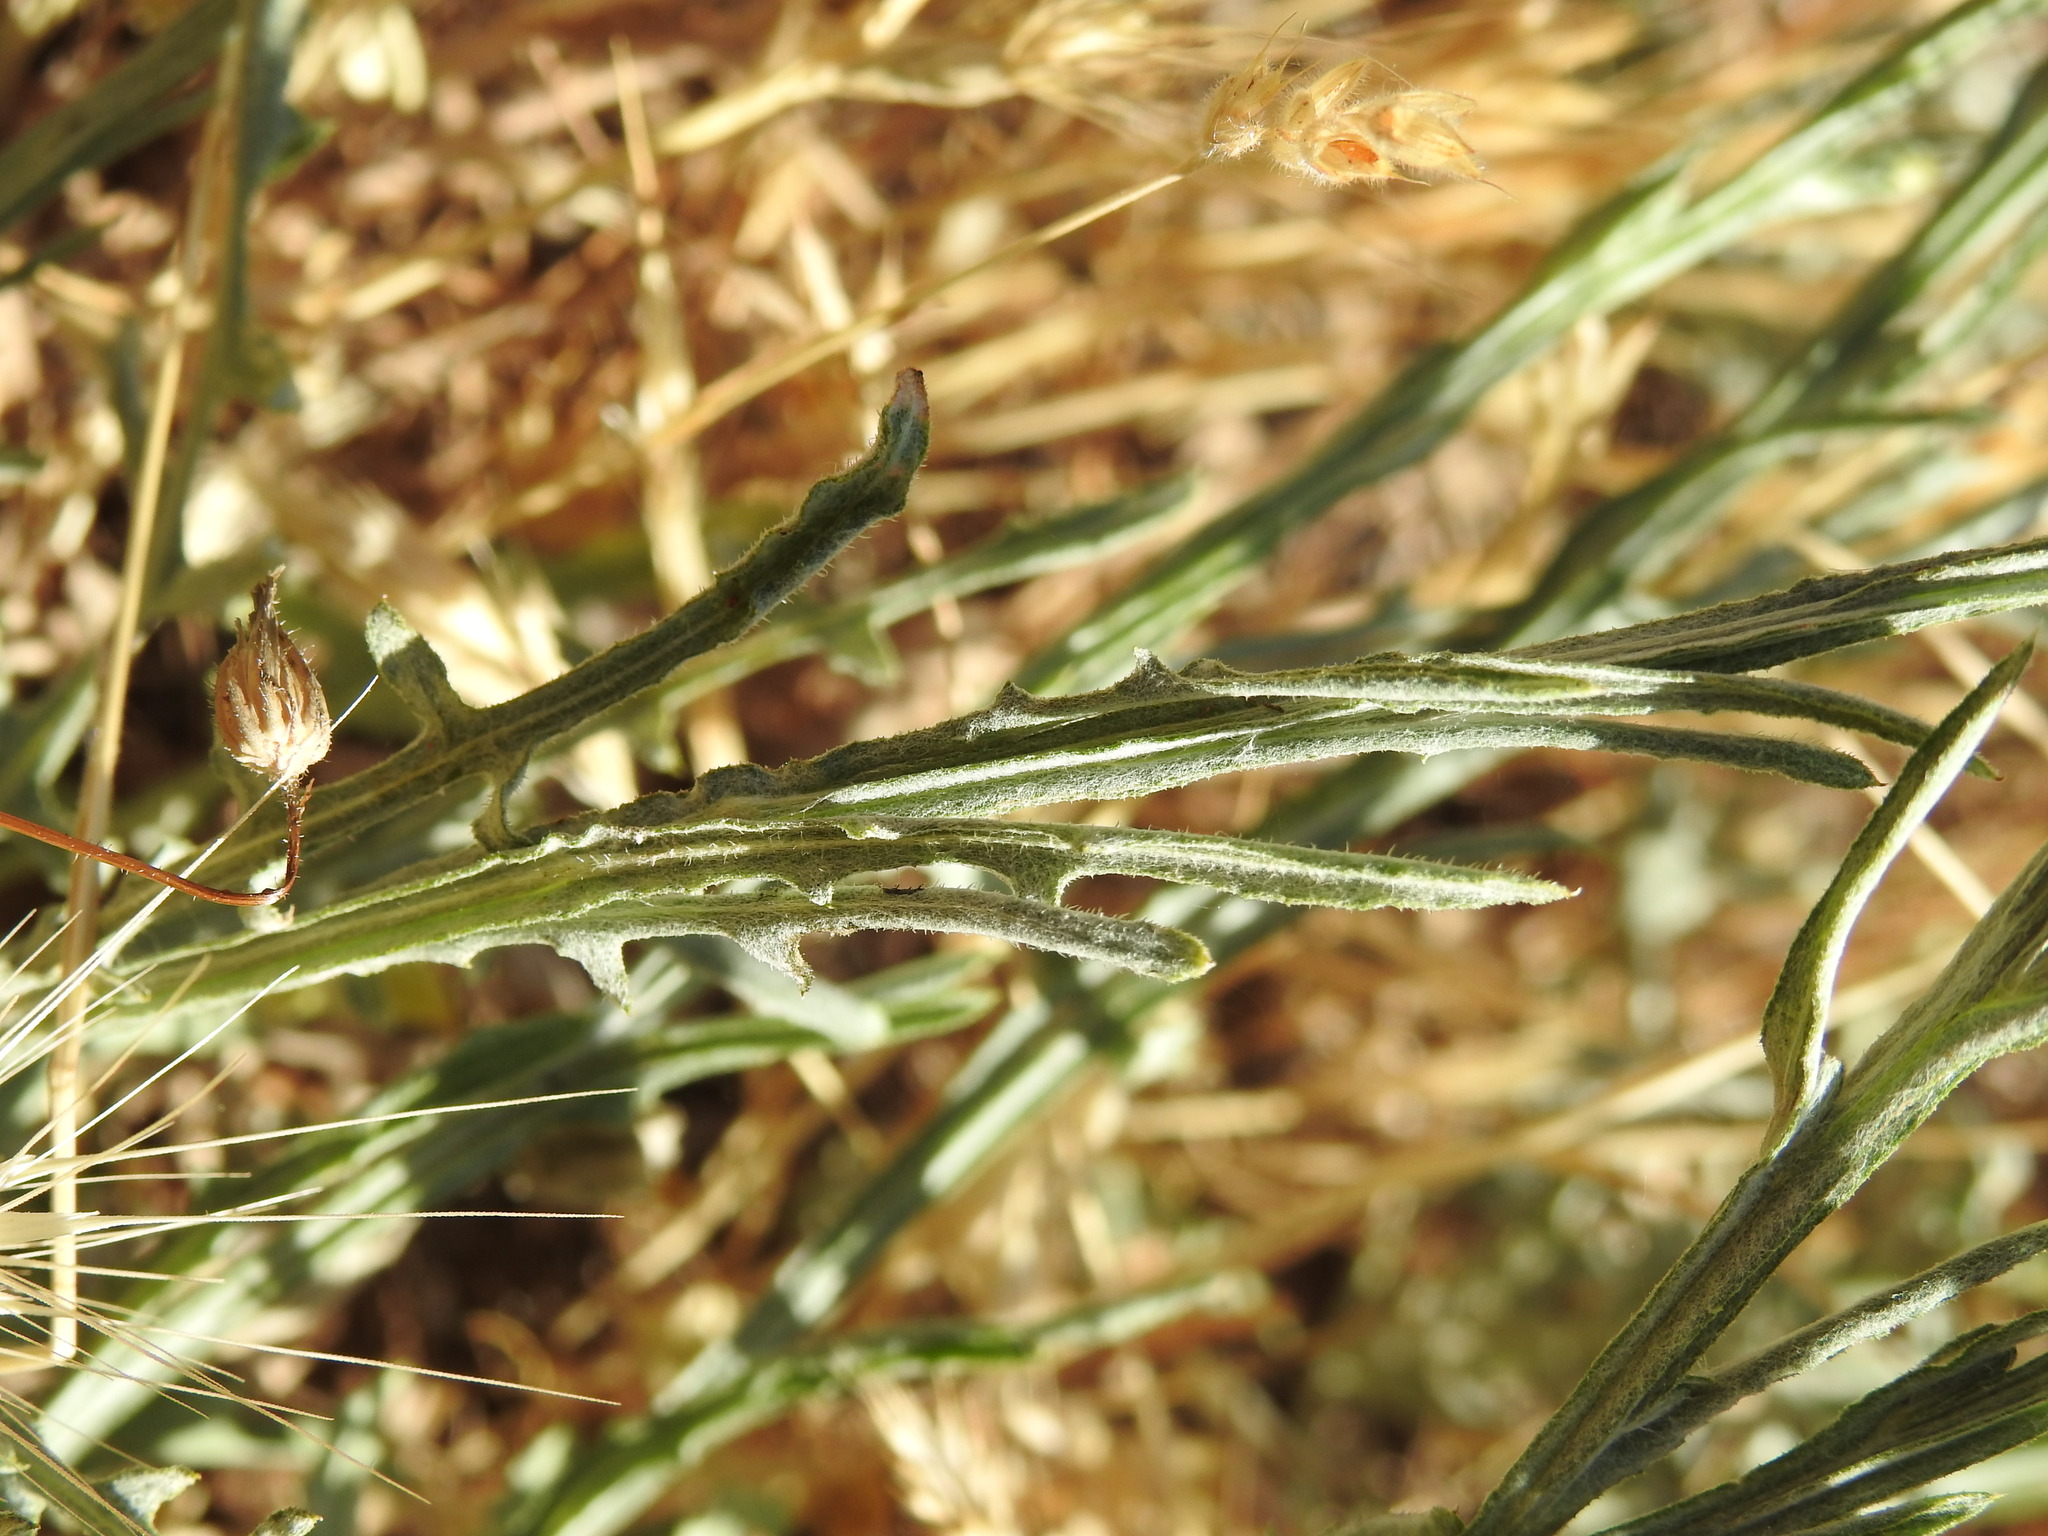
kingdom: Plantae
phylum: Tracheophyta
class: Magnoliopsida
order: Asterales
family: Asteraceae
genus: Centaurea
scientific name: Centaurea solstitialis
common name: Yellow star-thistle
